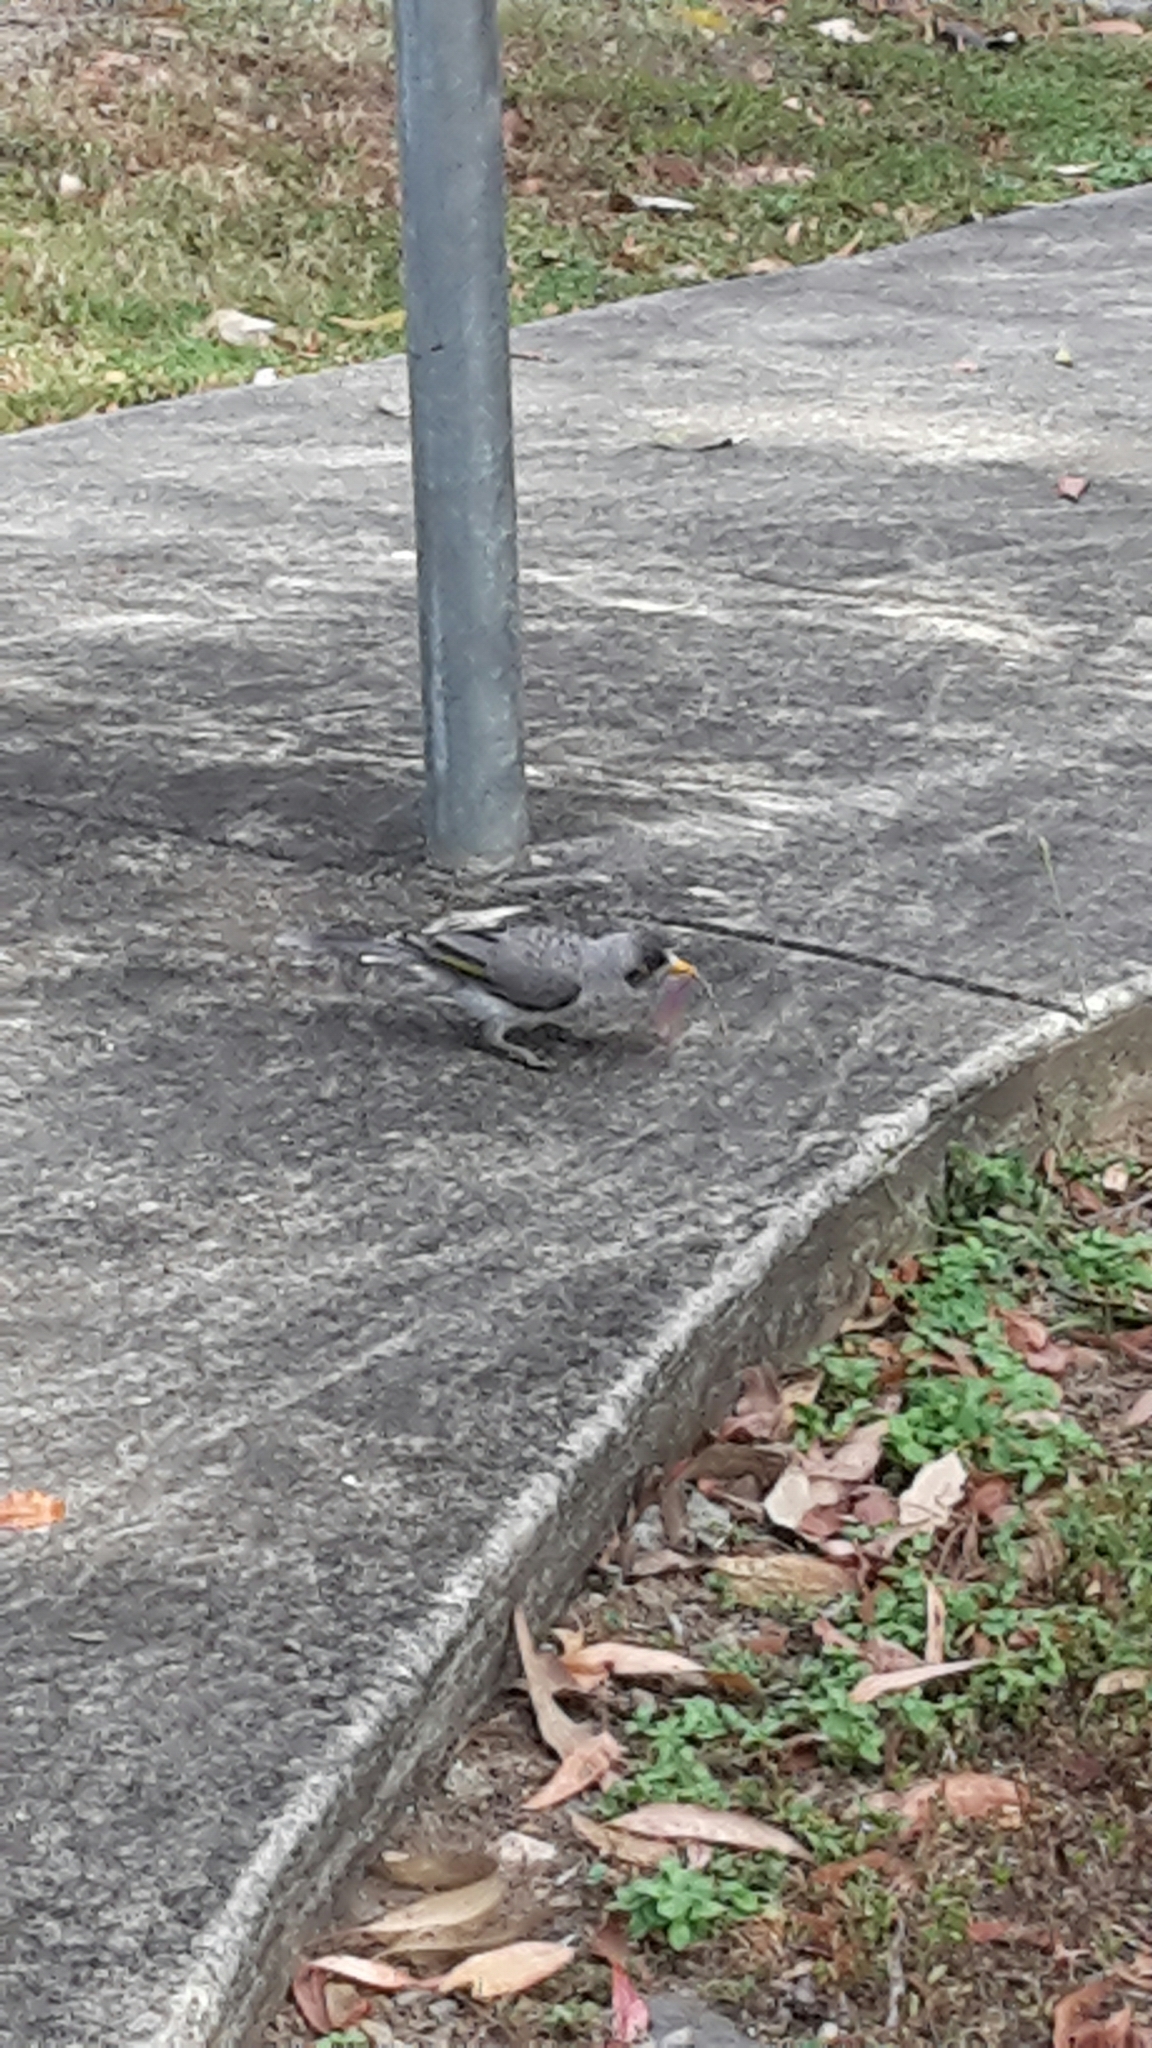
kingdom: Animalia
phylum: Chordata
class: Aves
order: Passeriformes
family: Meliphagidae
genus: Manorina
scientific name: Manorina melanocephala
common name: Noisy miner
